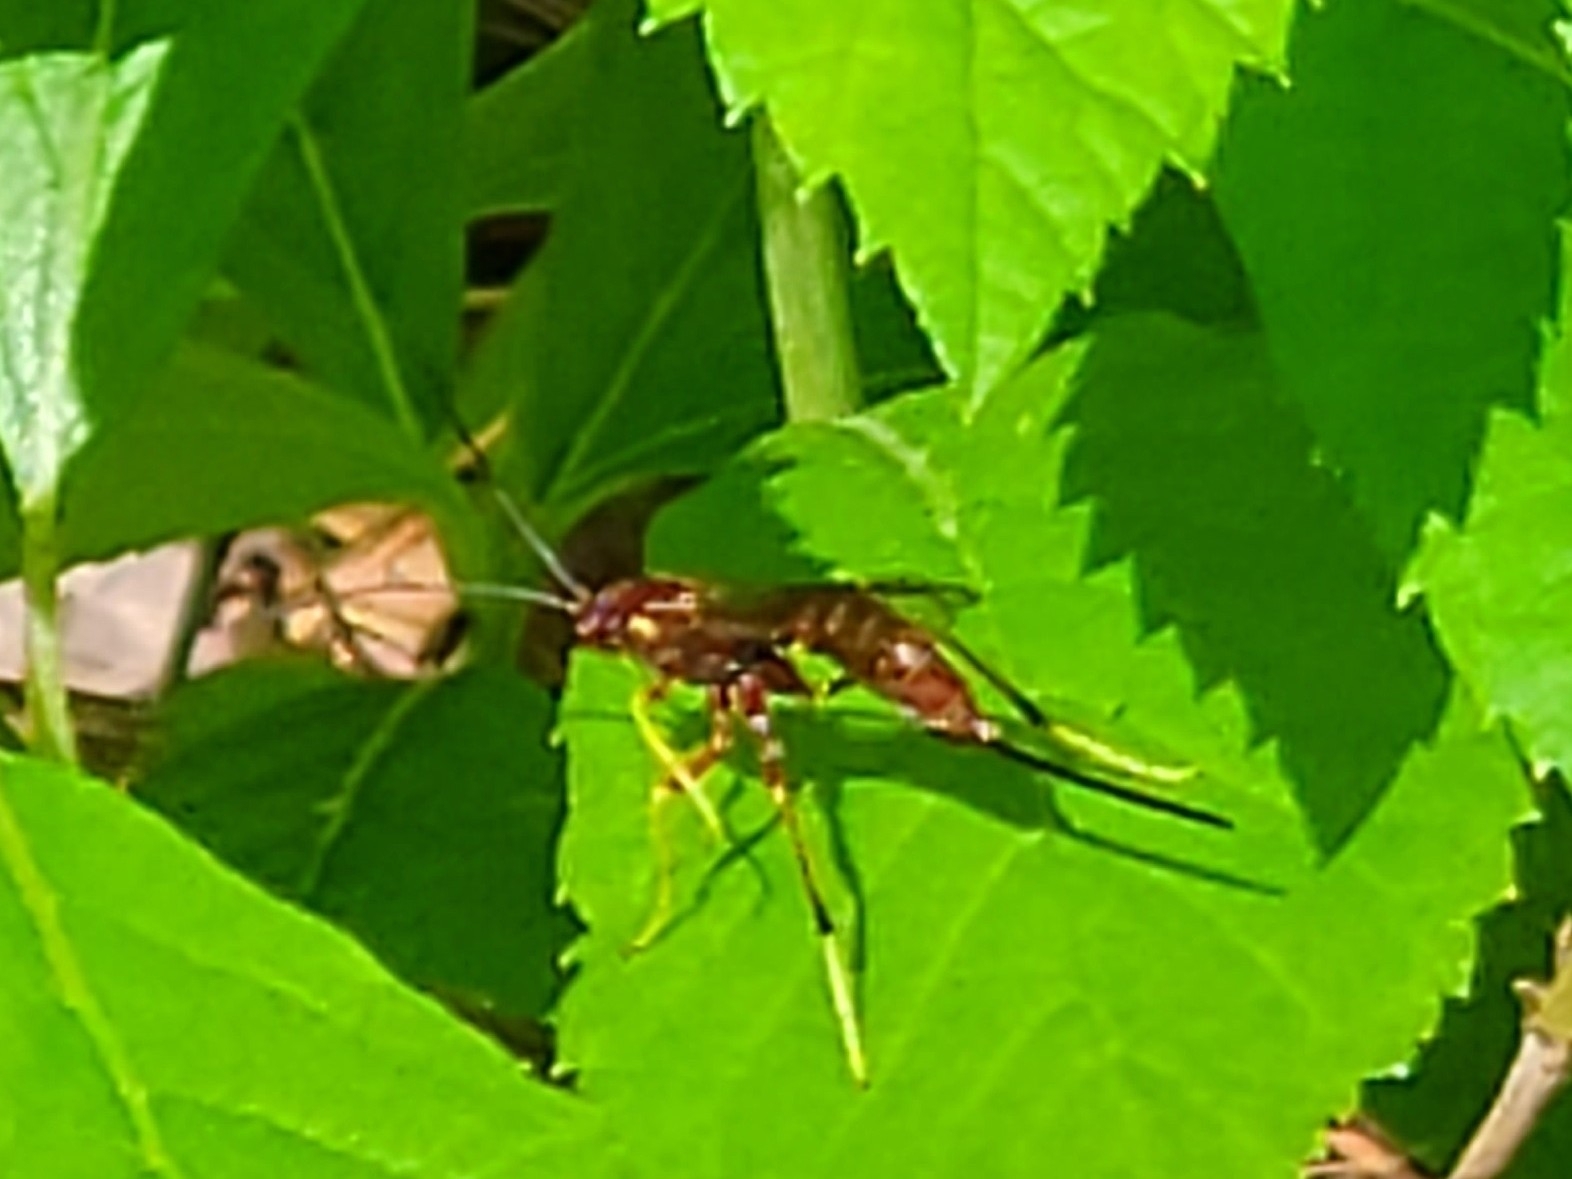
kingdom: Animalia
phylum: Arthropoda
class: Insecta
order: Hymenoptera
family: Ichneumonidae
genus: Coleocentrus
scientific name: Coleocentrus rufus
